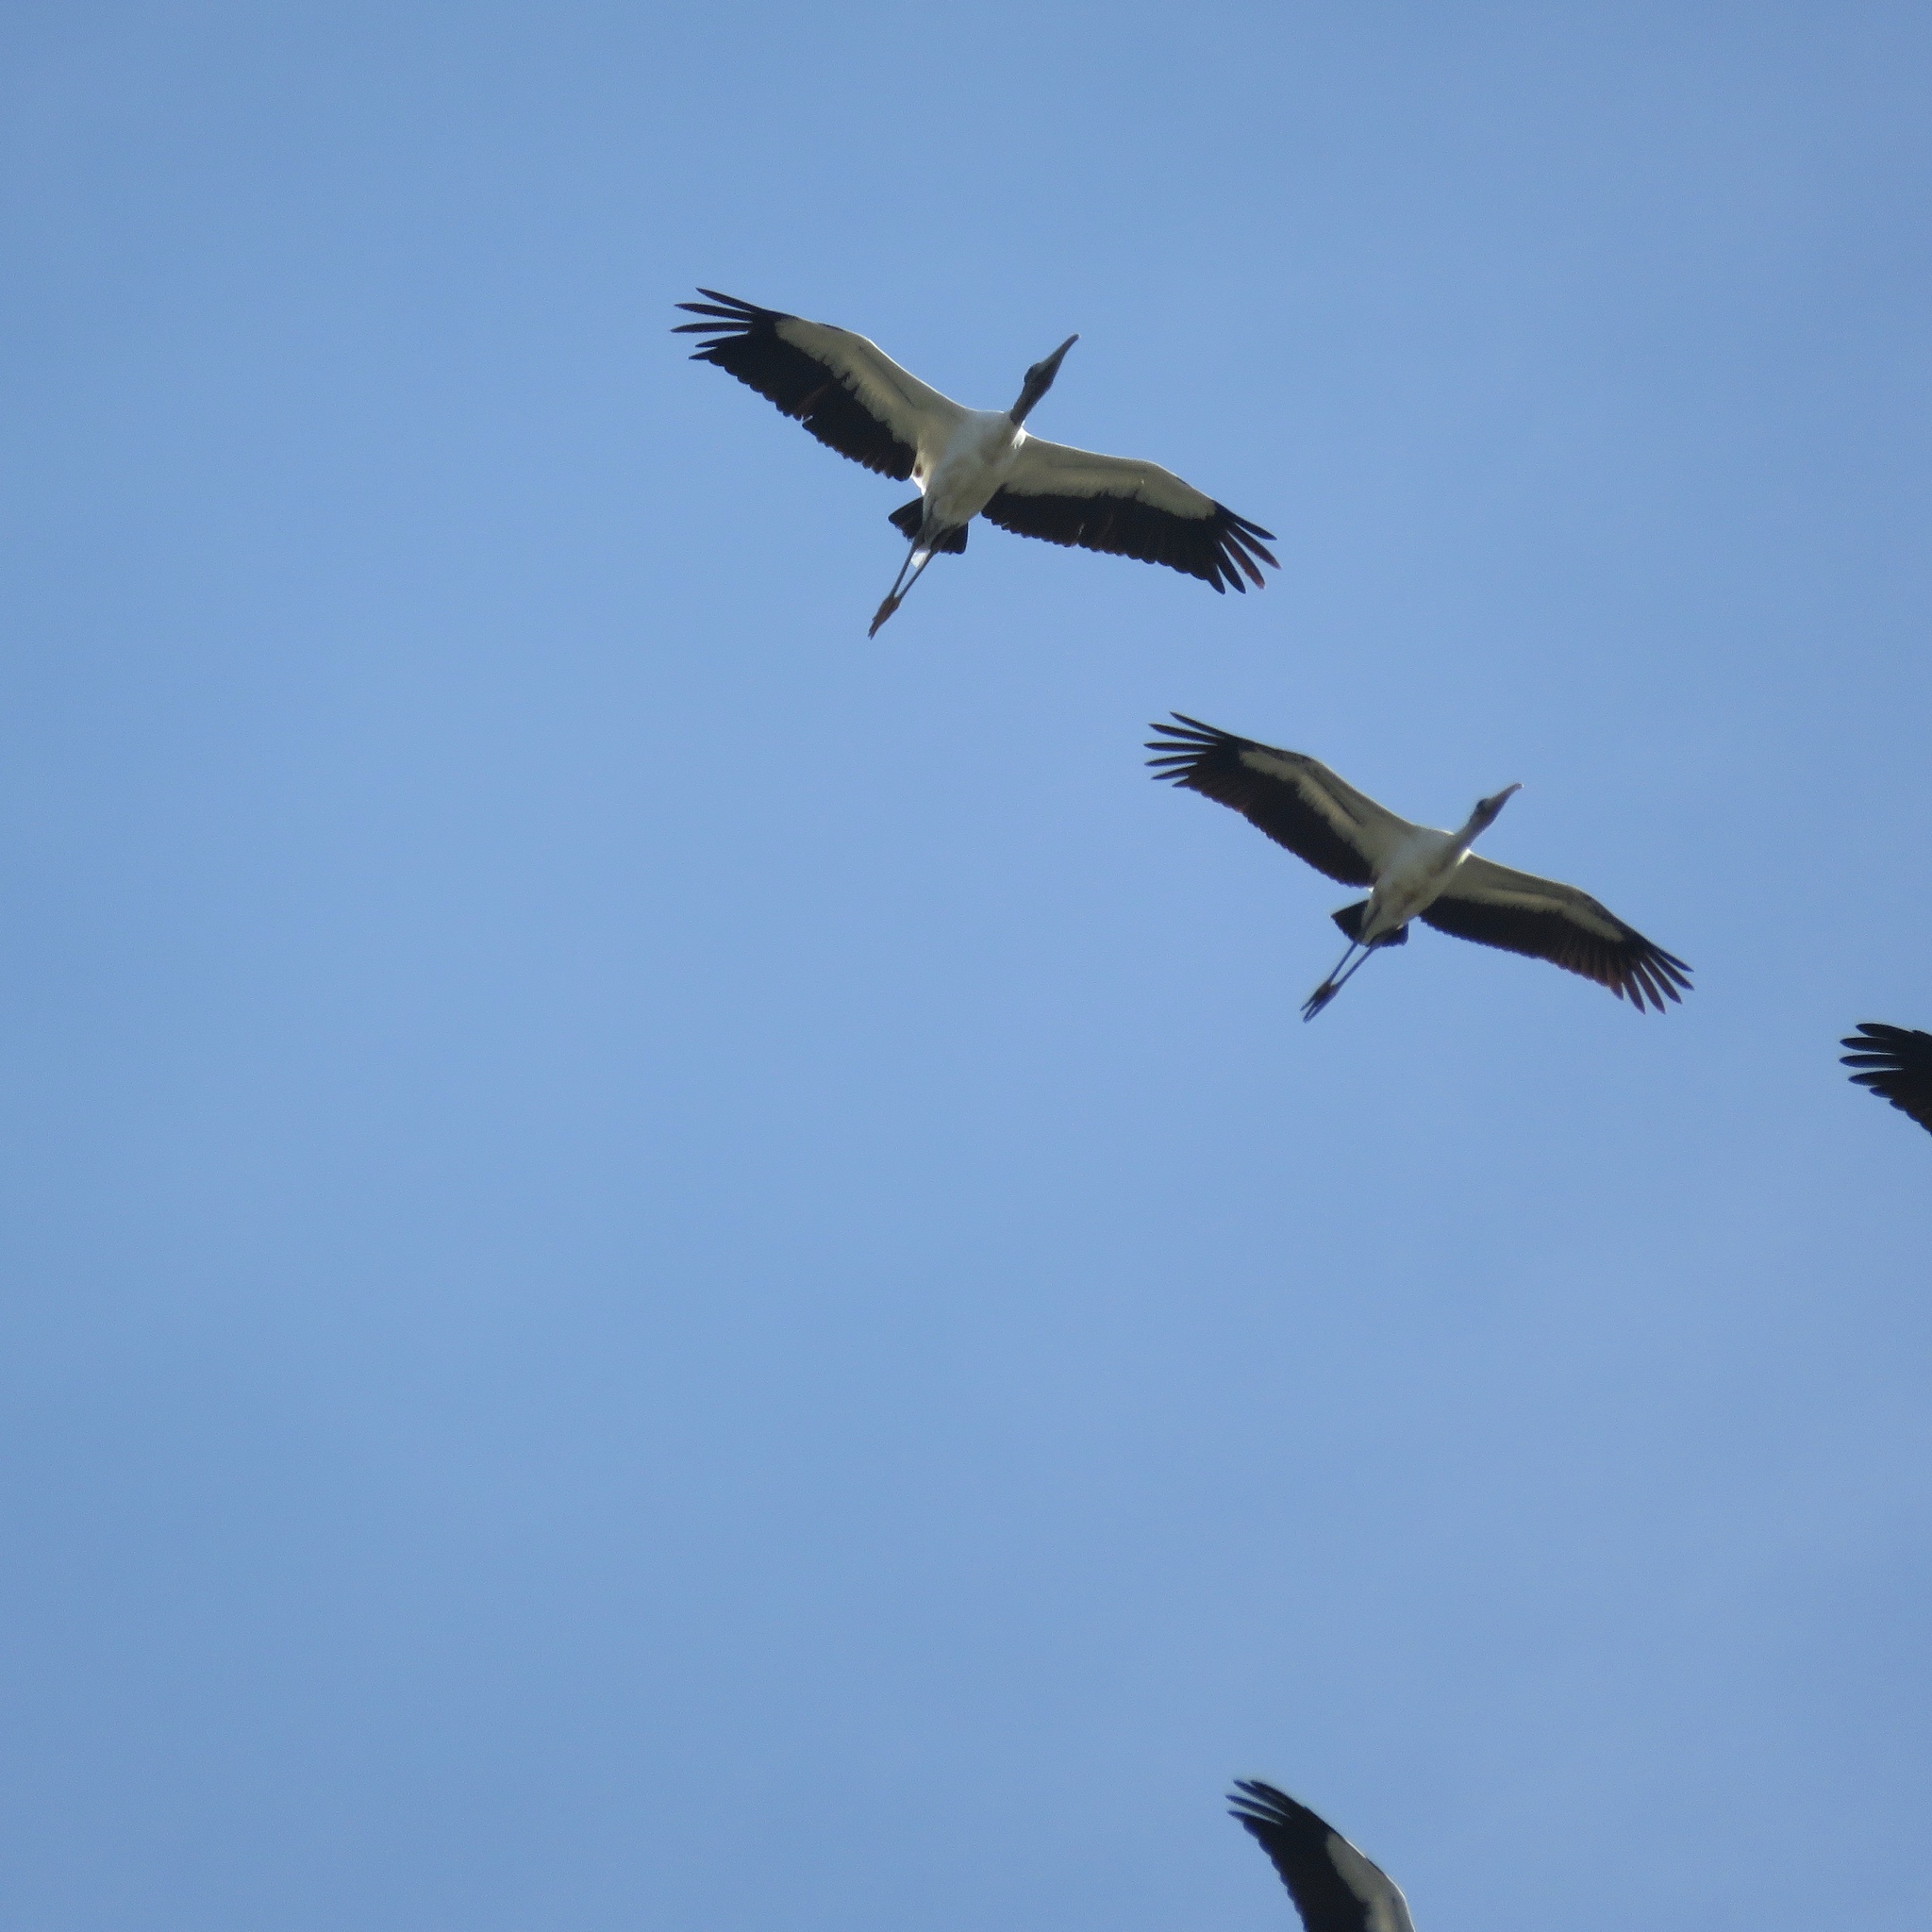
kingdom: Animalia
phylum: Chordata
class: Aves
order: Ciconiiformes
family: Ciconiidae
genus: Mycteria
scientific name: Mycteria americana
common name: Wood stork
